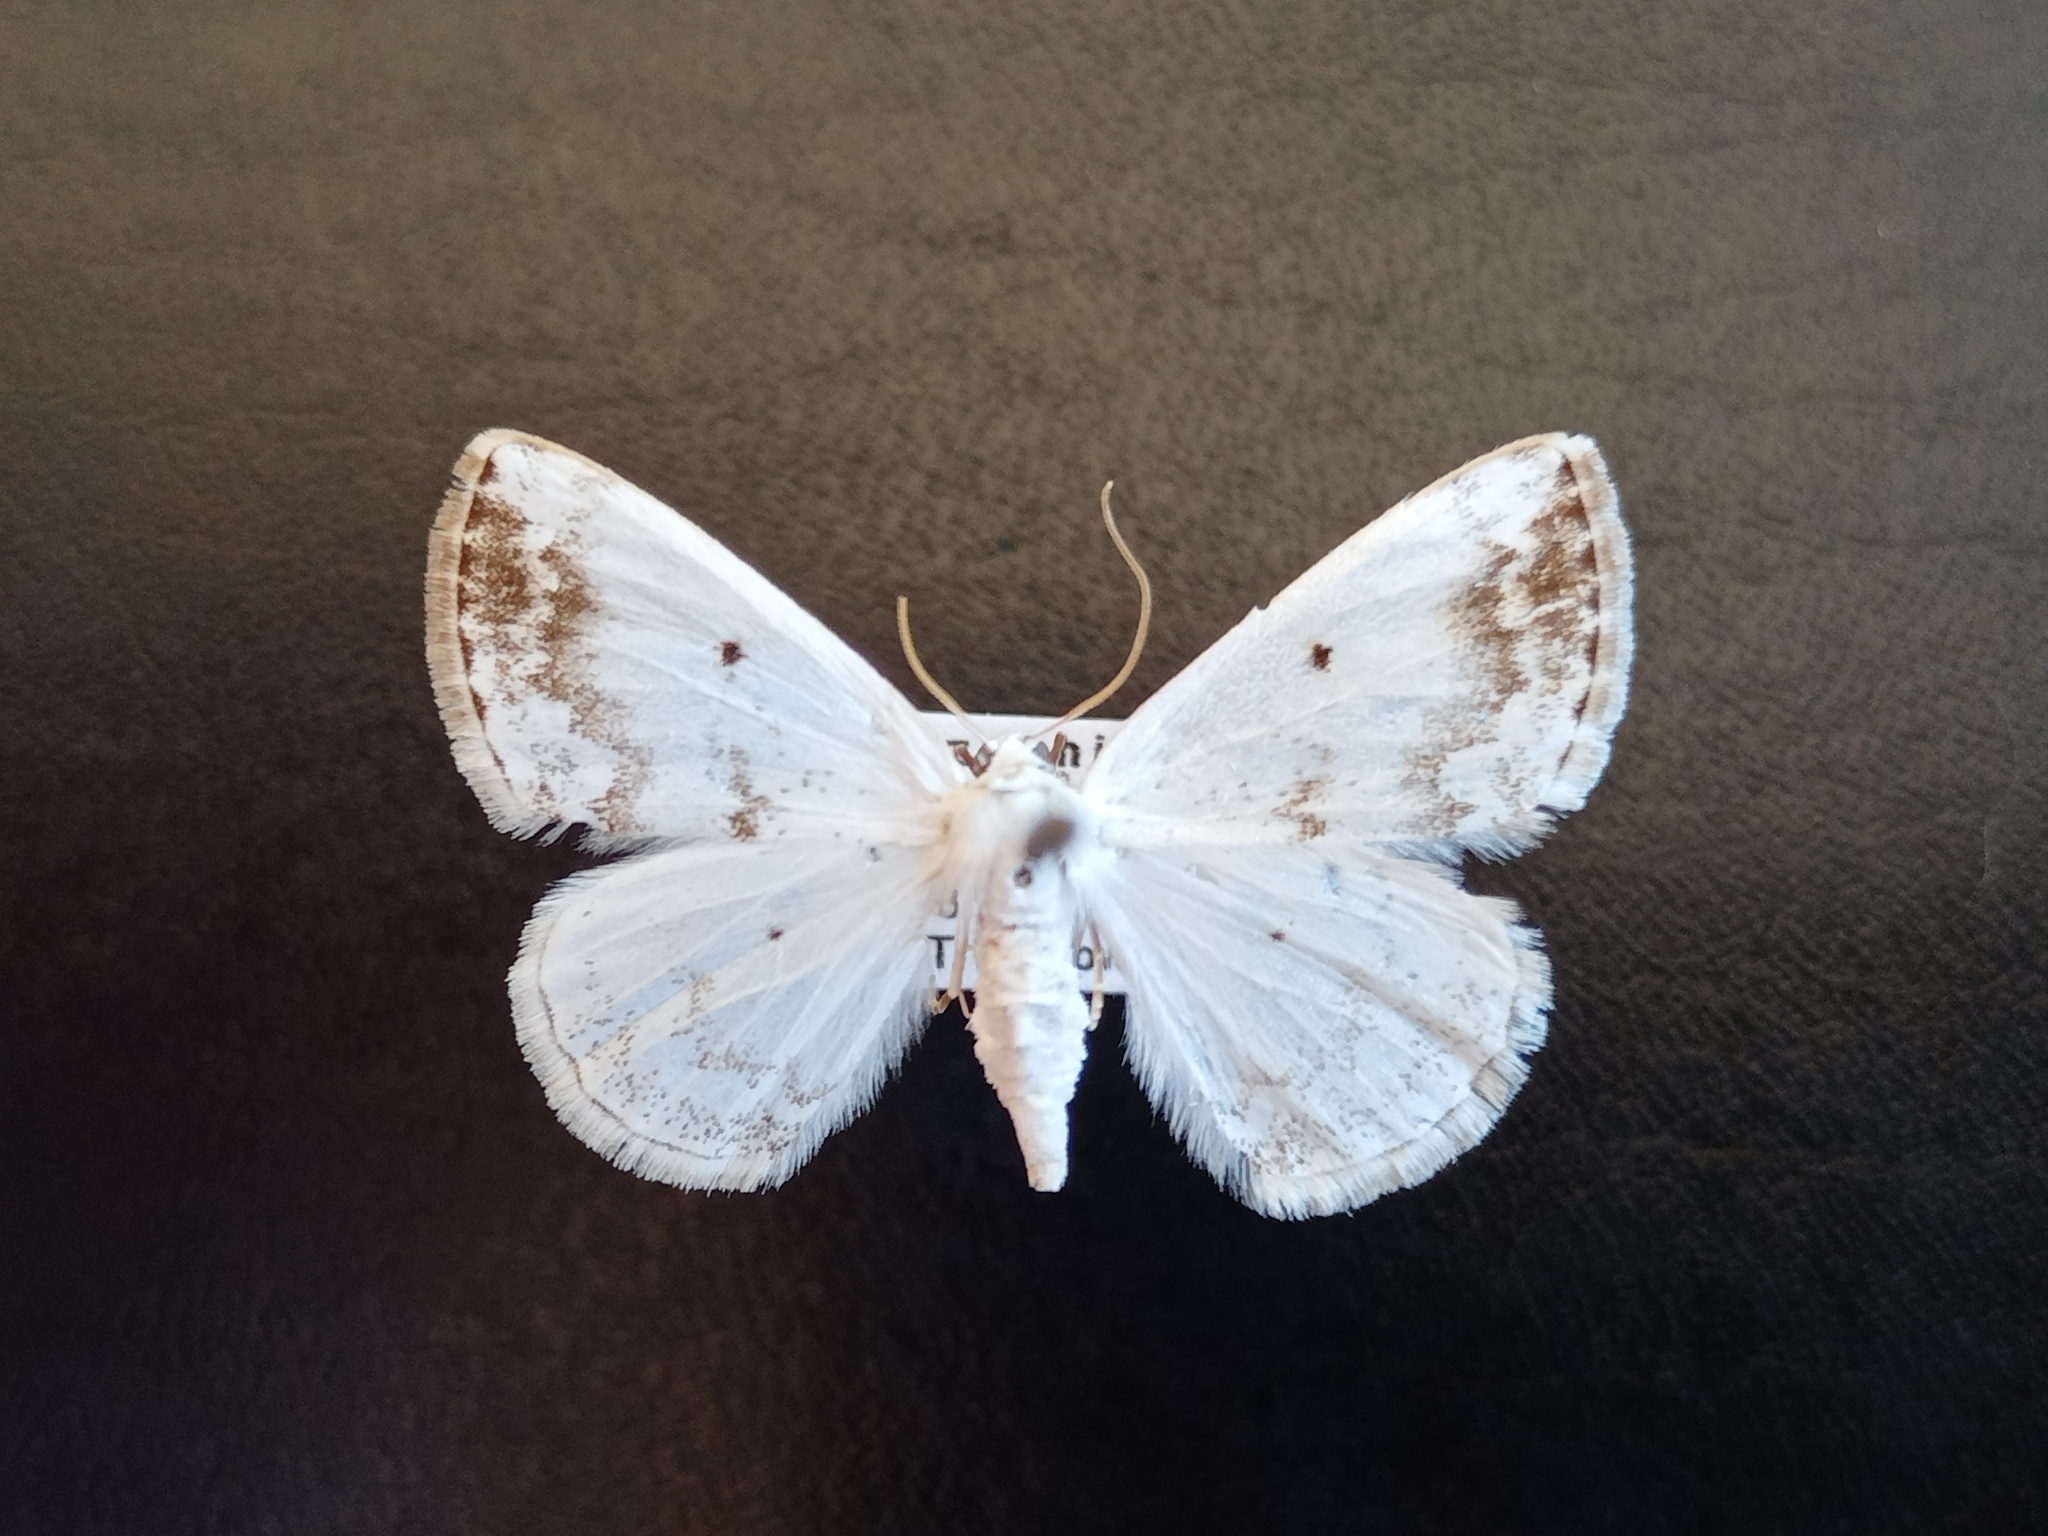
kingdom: Animalia
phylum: Arthropoda
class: Insecta
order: Lepidoptera
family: Geometridae
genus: Lomographa
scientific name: Lomographa temerata
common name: Clouded silver
